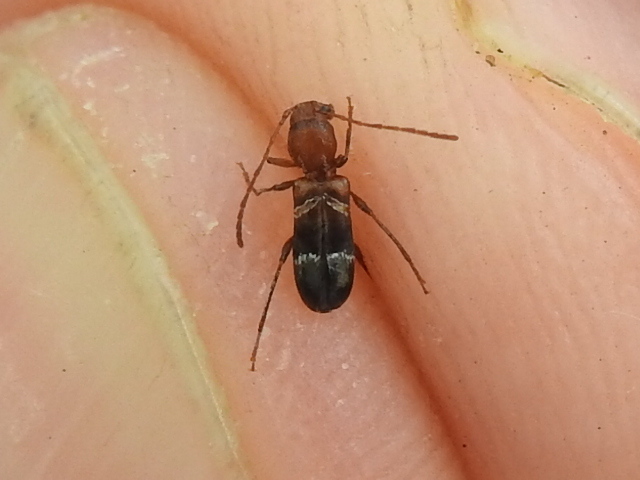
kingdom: Animalia
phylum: Arthropoda
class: Insecta
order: Coleoptera
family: Cerambycidae
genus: Tilloclytus
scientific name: Tilloclytus geminatus
